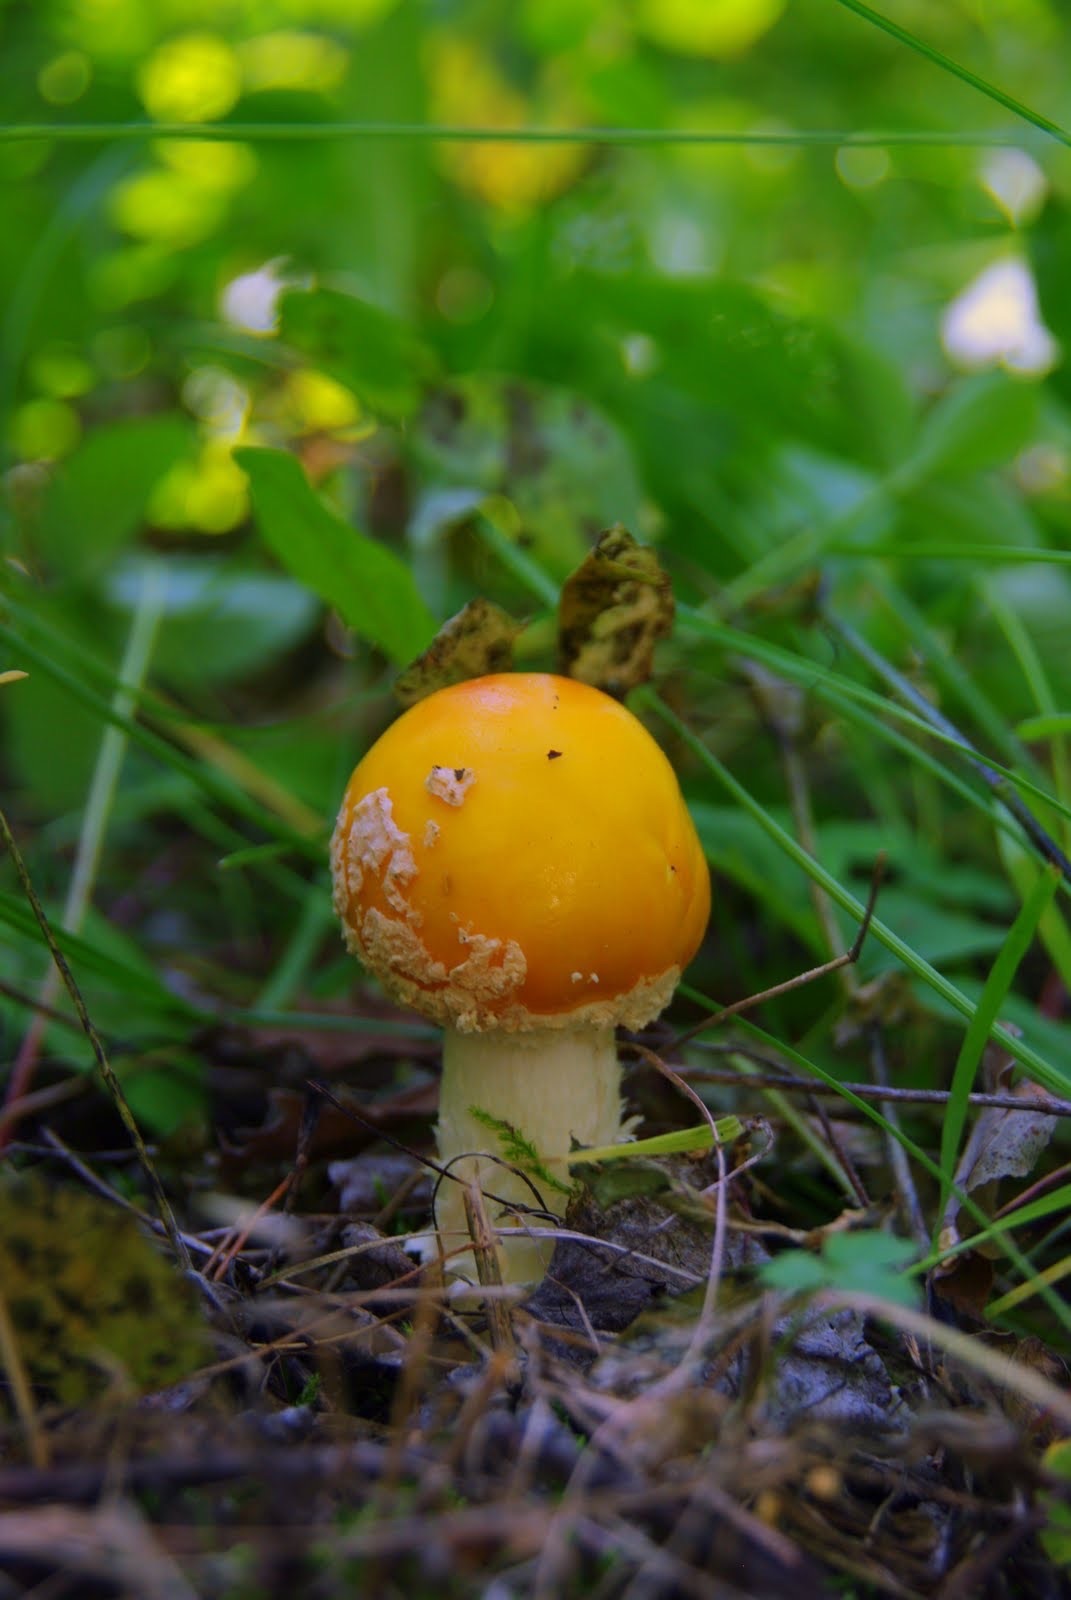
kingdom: Fungi
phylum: Basidiomycota
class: Agaricomycetes
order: Agaricales
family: Amanitaceae
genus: Amanita
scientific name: Amanita muscaria
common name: Fly agaric
